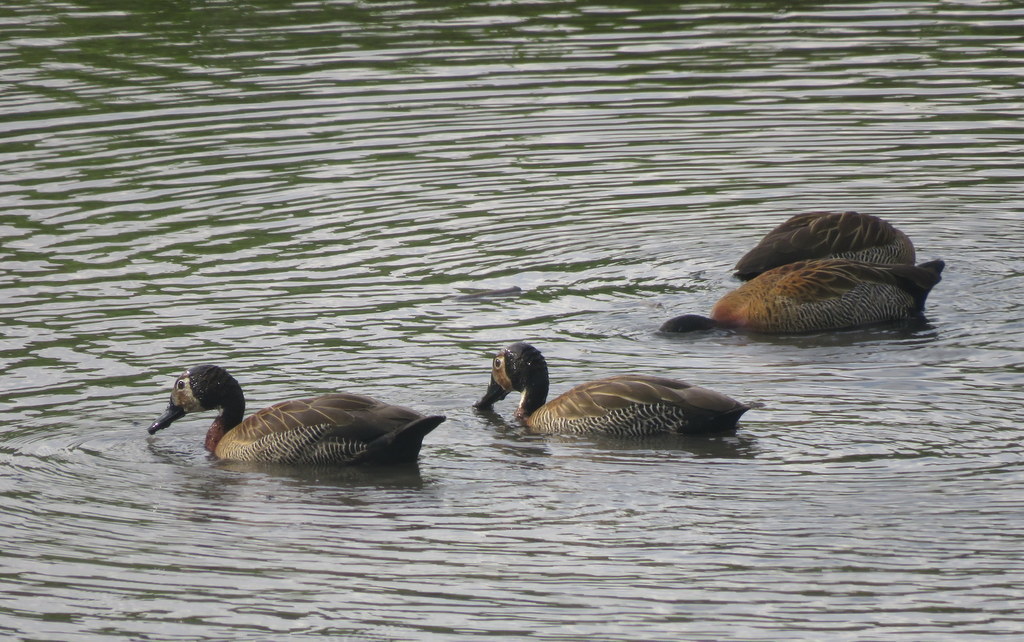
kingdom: Animalia
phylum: Chordata
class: Aves
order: Anseriformes
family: Anatidae
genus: Dendrocygna
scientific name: Dendrocygna viduata
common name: White-faced whistling duck
